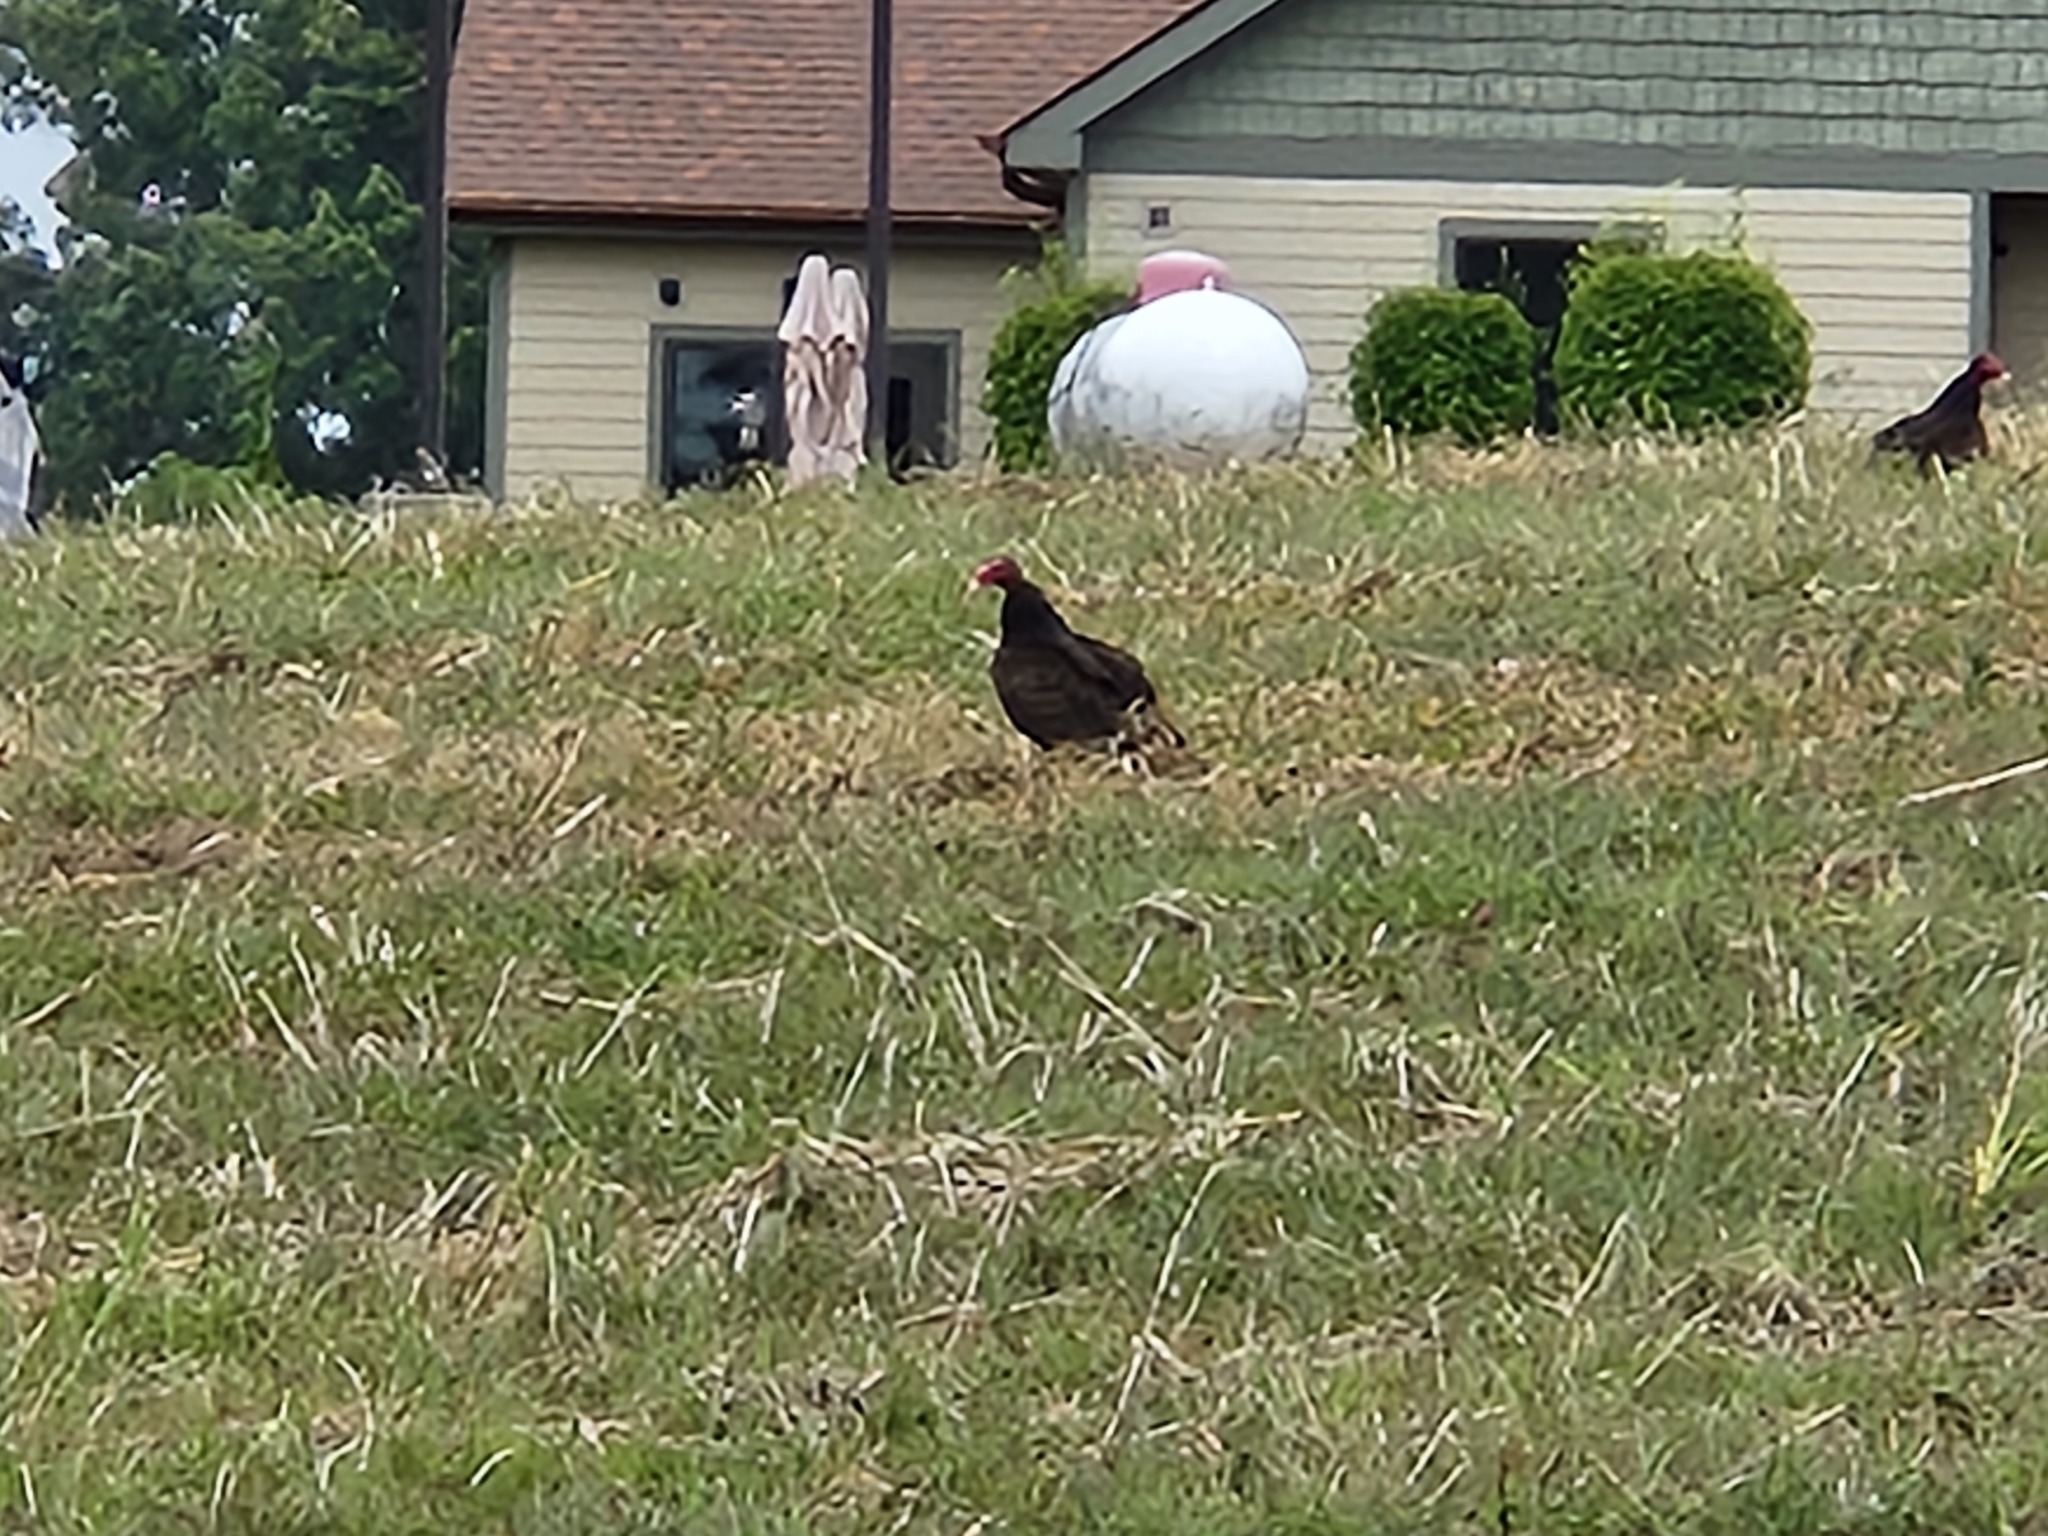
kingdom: Animalia
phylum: Chordata
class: Aves
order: Accipitriformes
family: Cathartidae
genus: Cathartes
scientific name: Cathartes aura
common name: Turkey vulture
